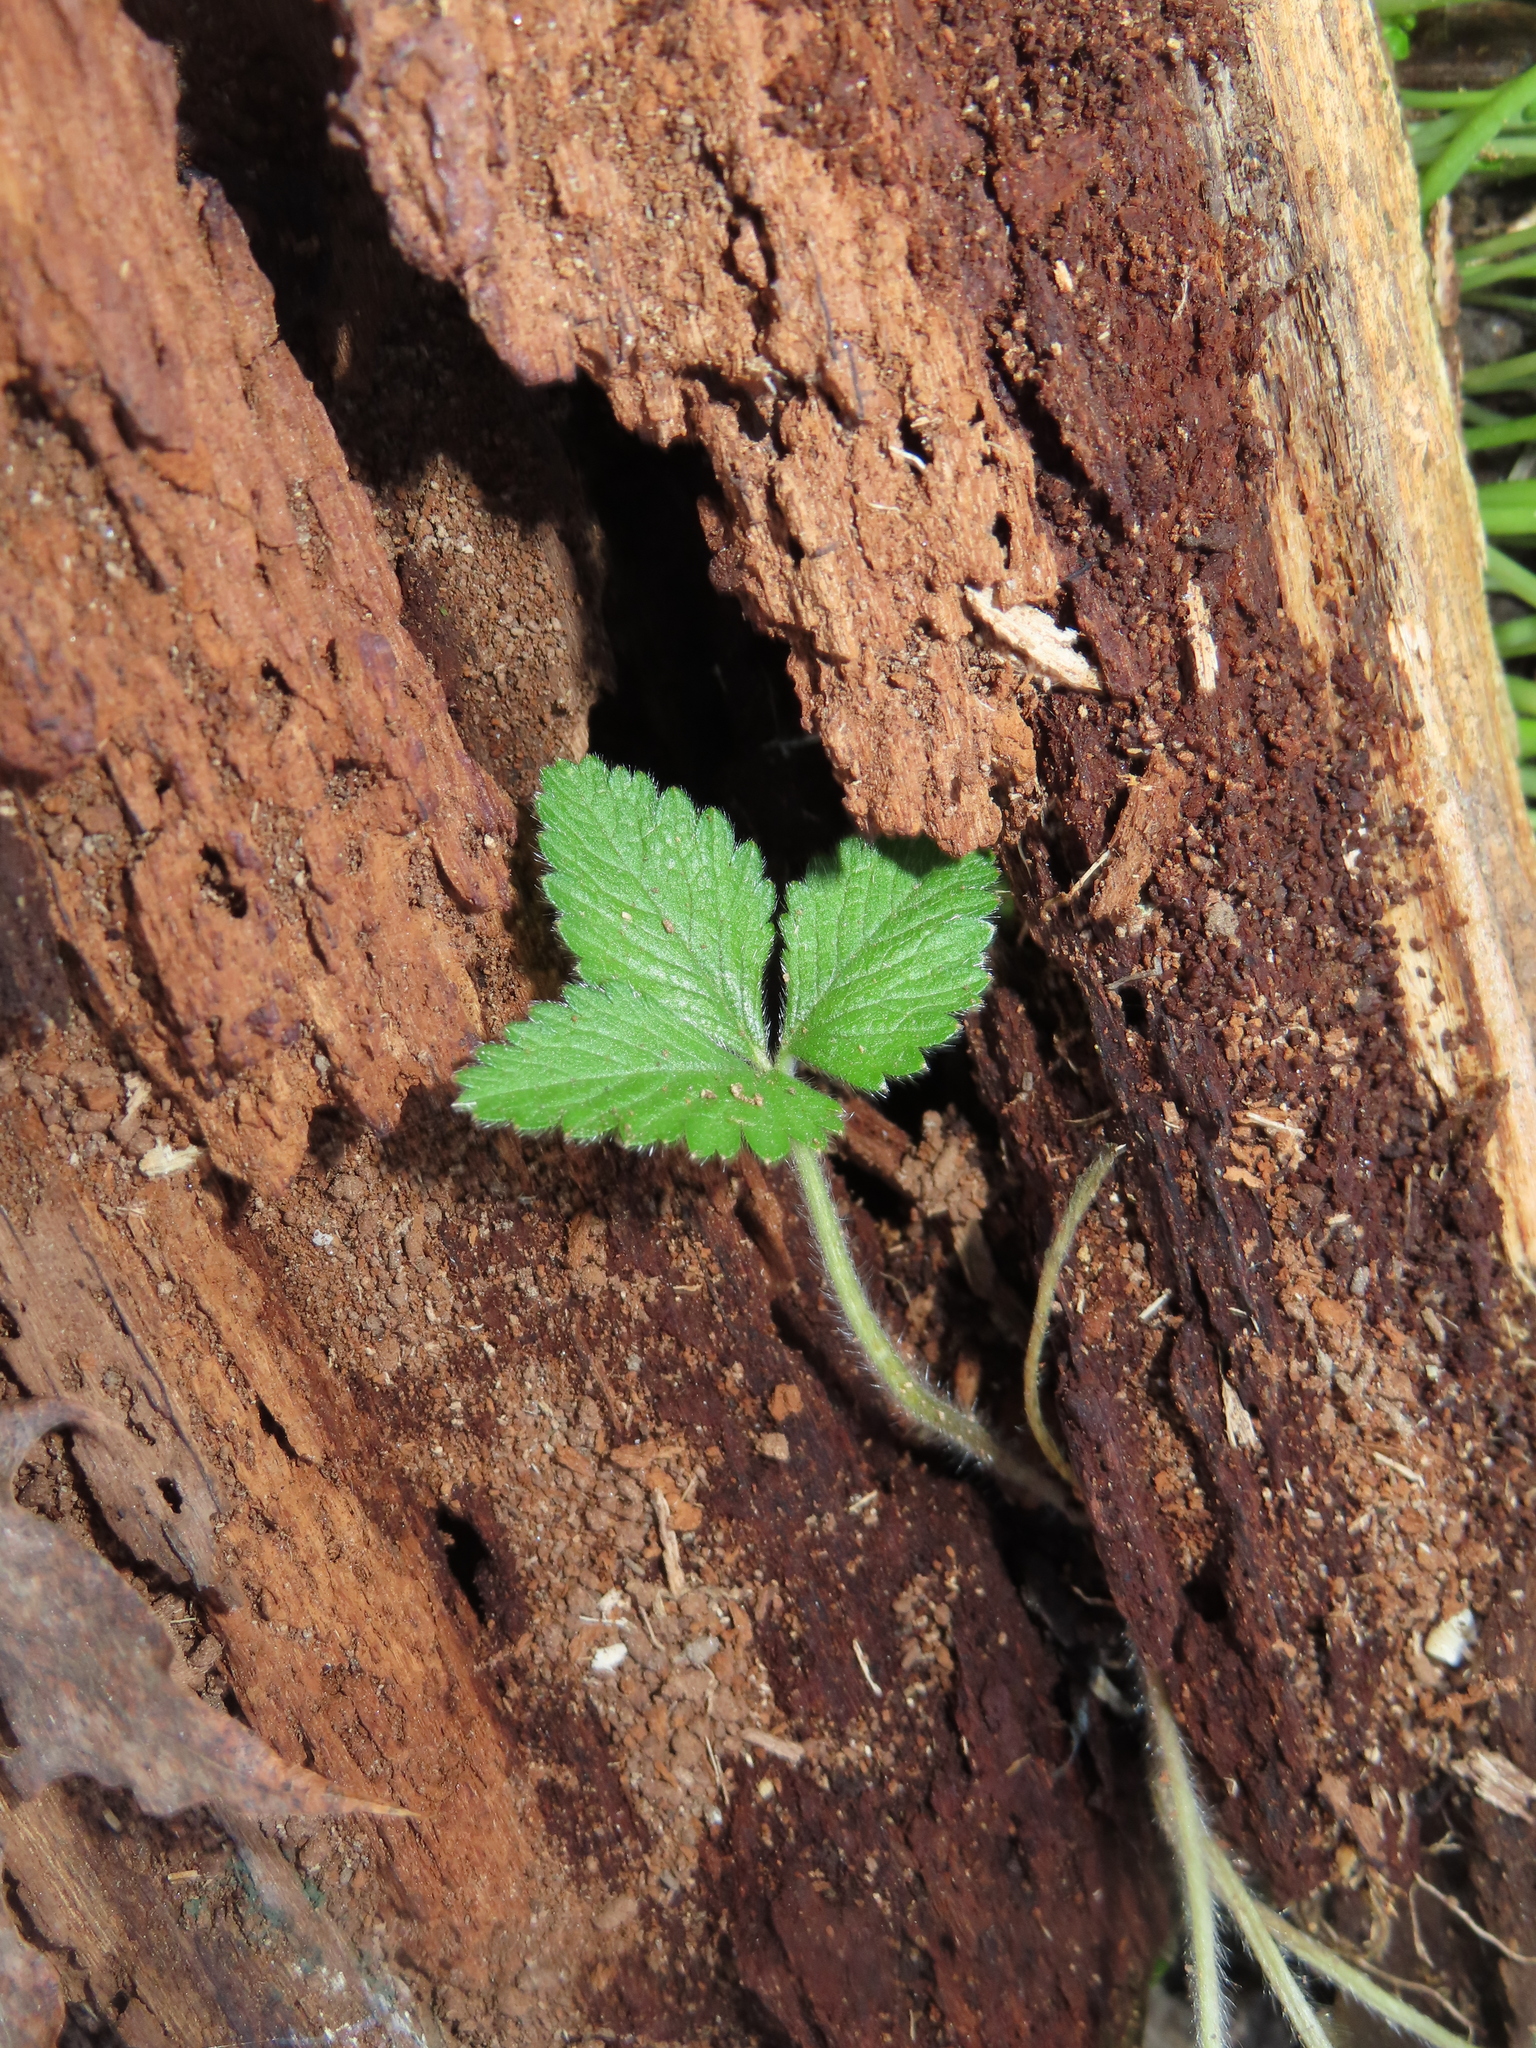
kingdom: Plantae
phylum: Tracheophyta
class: Magnoliopsida
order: Rosales
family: Rosaceae
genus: Potentilla
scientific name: Potentilla indica
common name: Yellow-flowered strawberry
